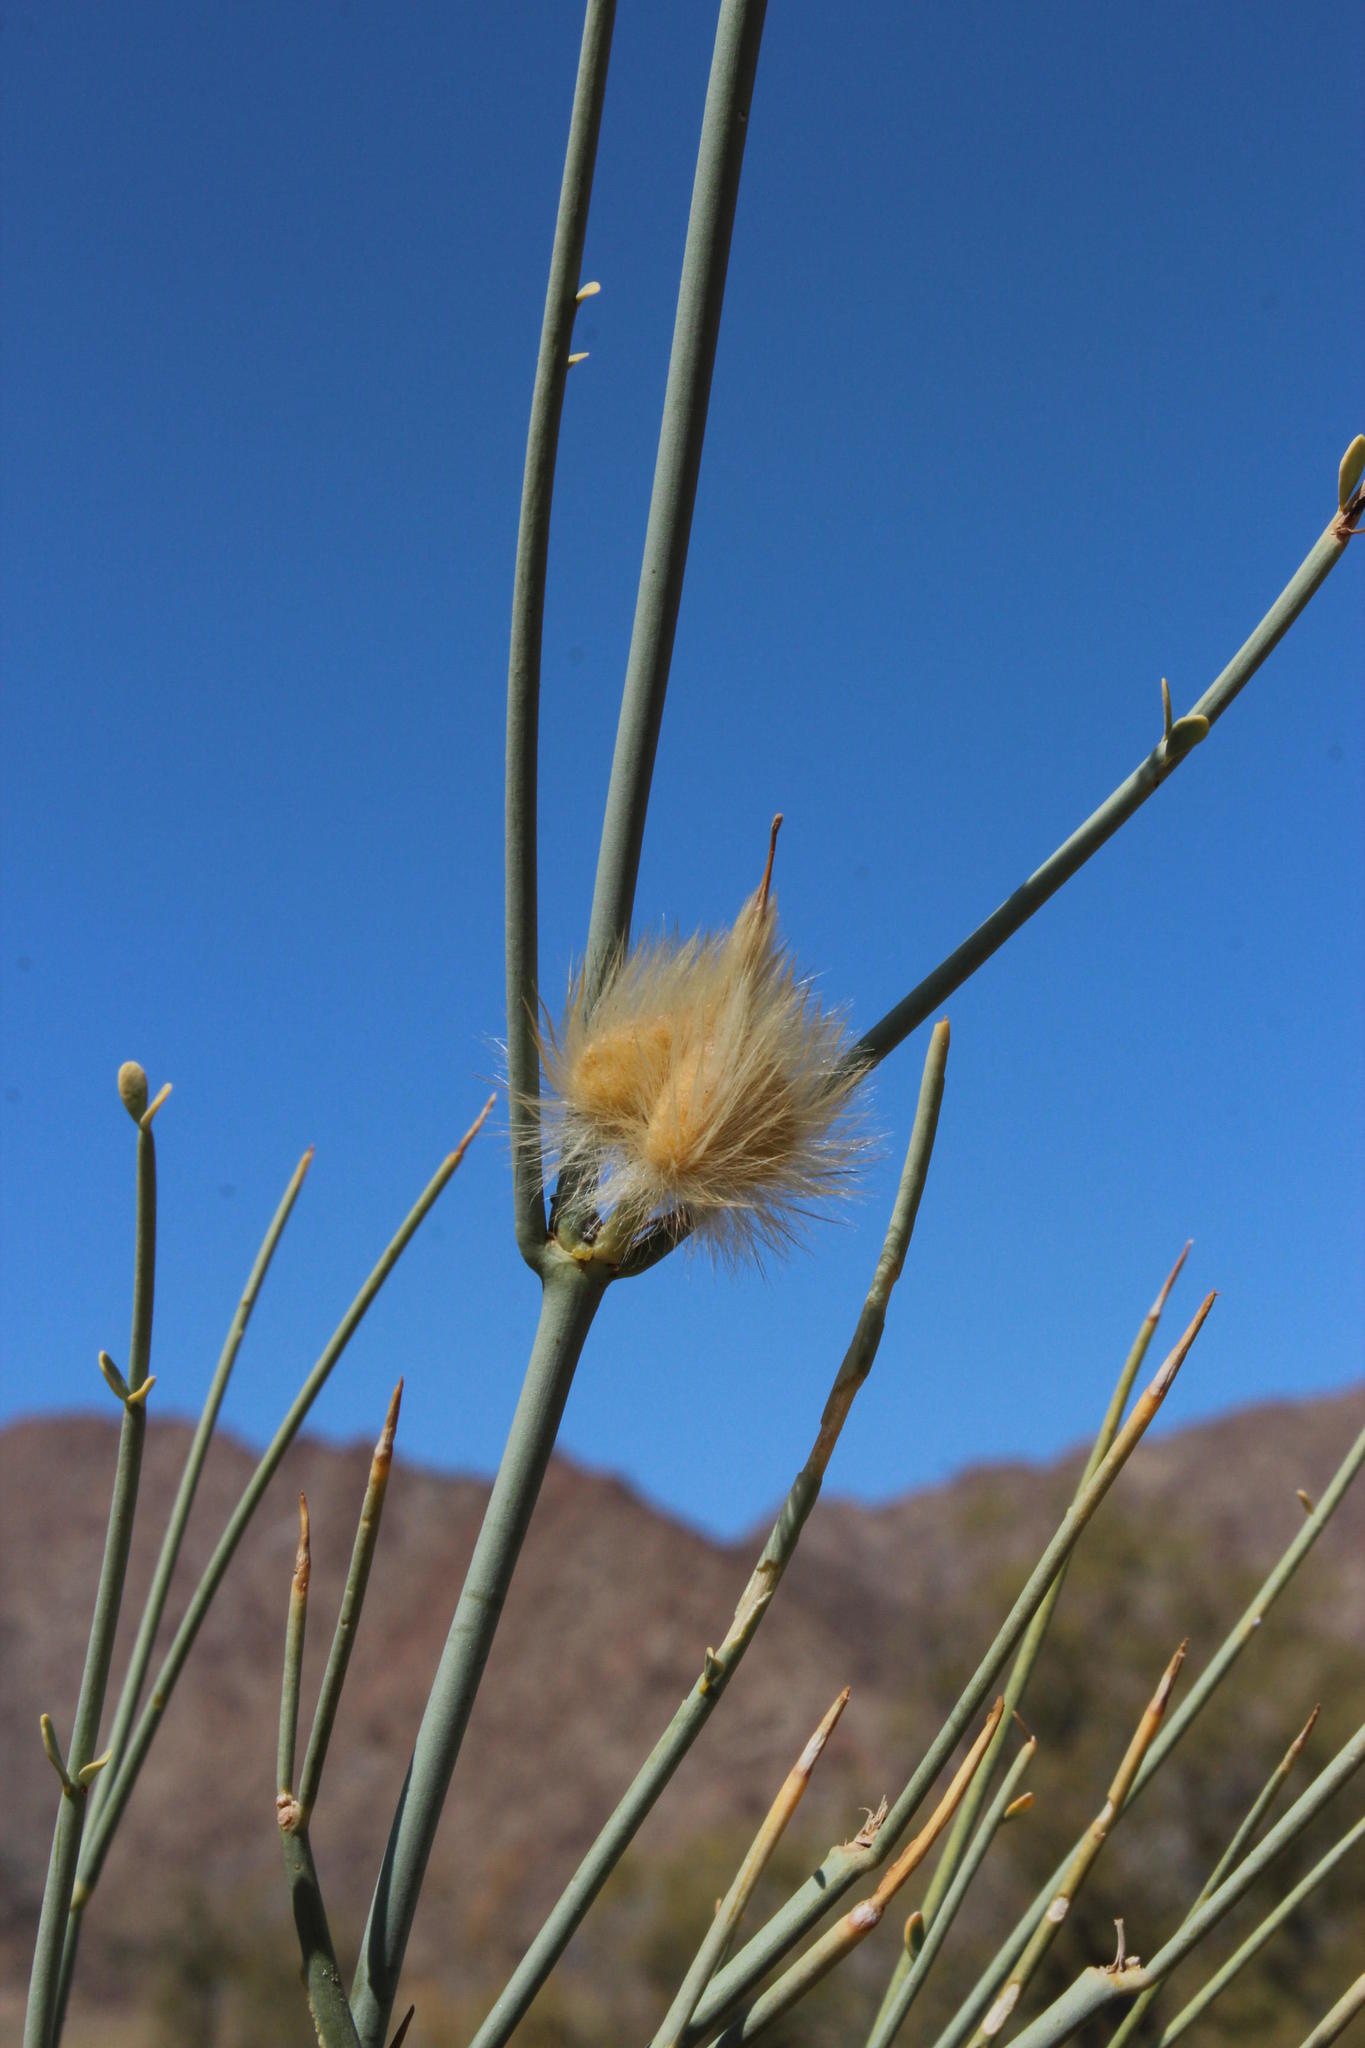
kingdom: Plantae
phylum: Tracheophyta
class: Magnoliopsida
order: Zygophyllales
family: Zygophyllaceae
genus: Sisyndite
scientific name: Sisyndite spartea
